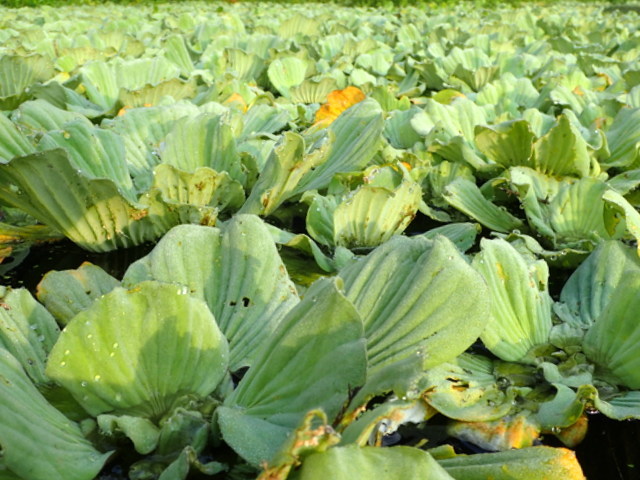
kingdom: Plantae
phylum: Tracheophyta
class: Liliopsida
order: Alismatales
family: Araceae
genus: Pistia
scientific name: Pistia stratiotes
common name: Water lettuce
